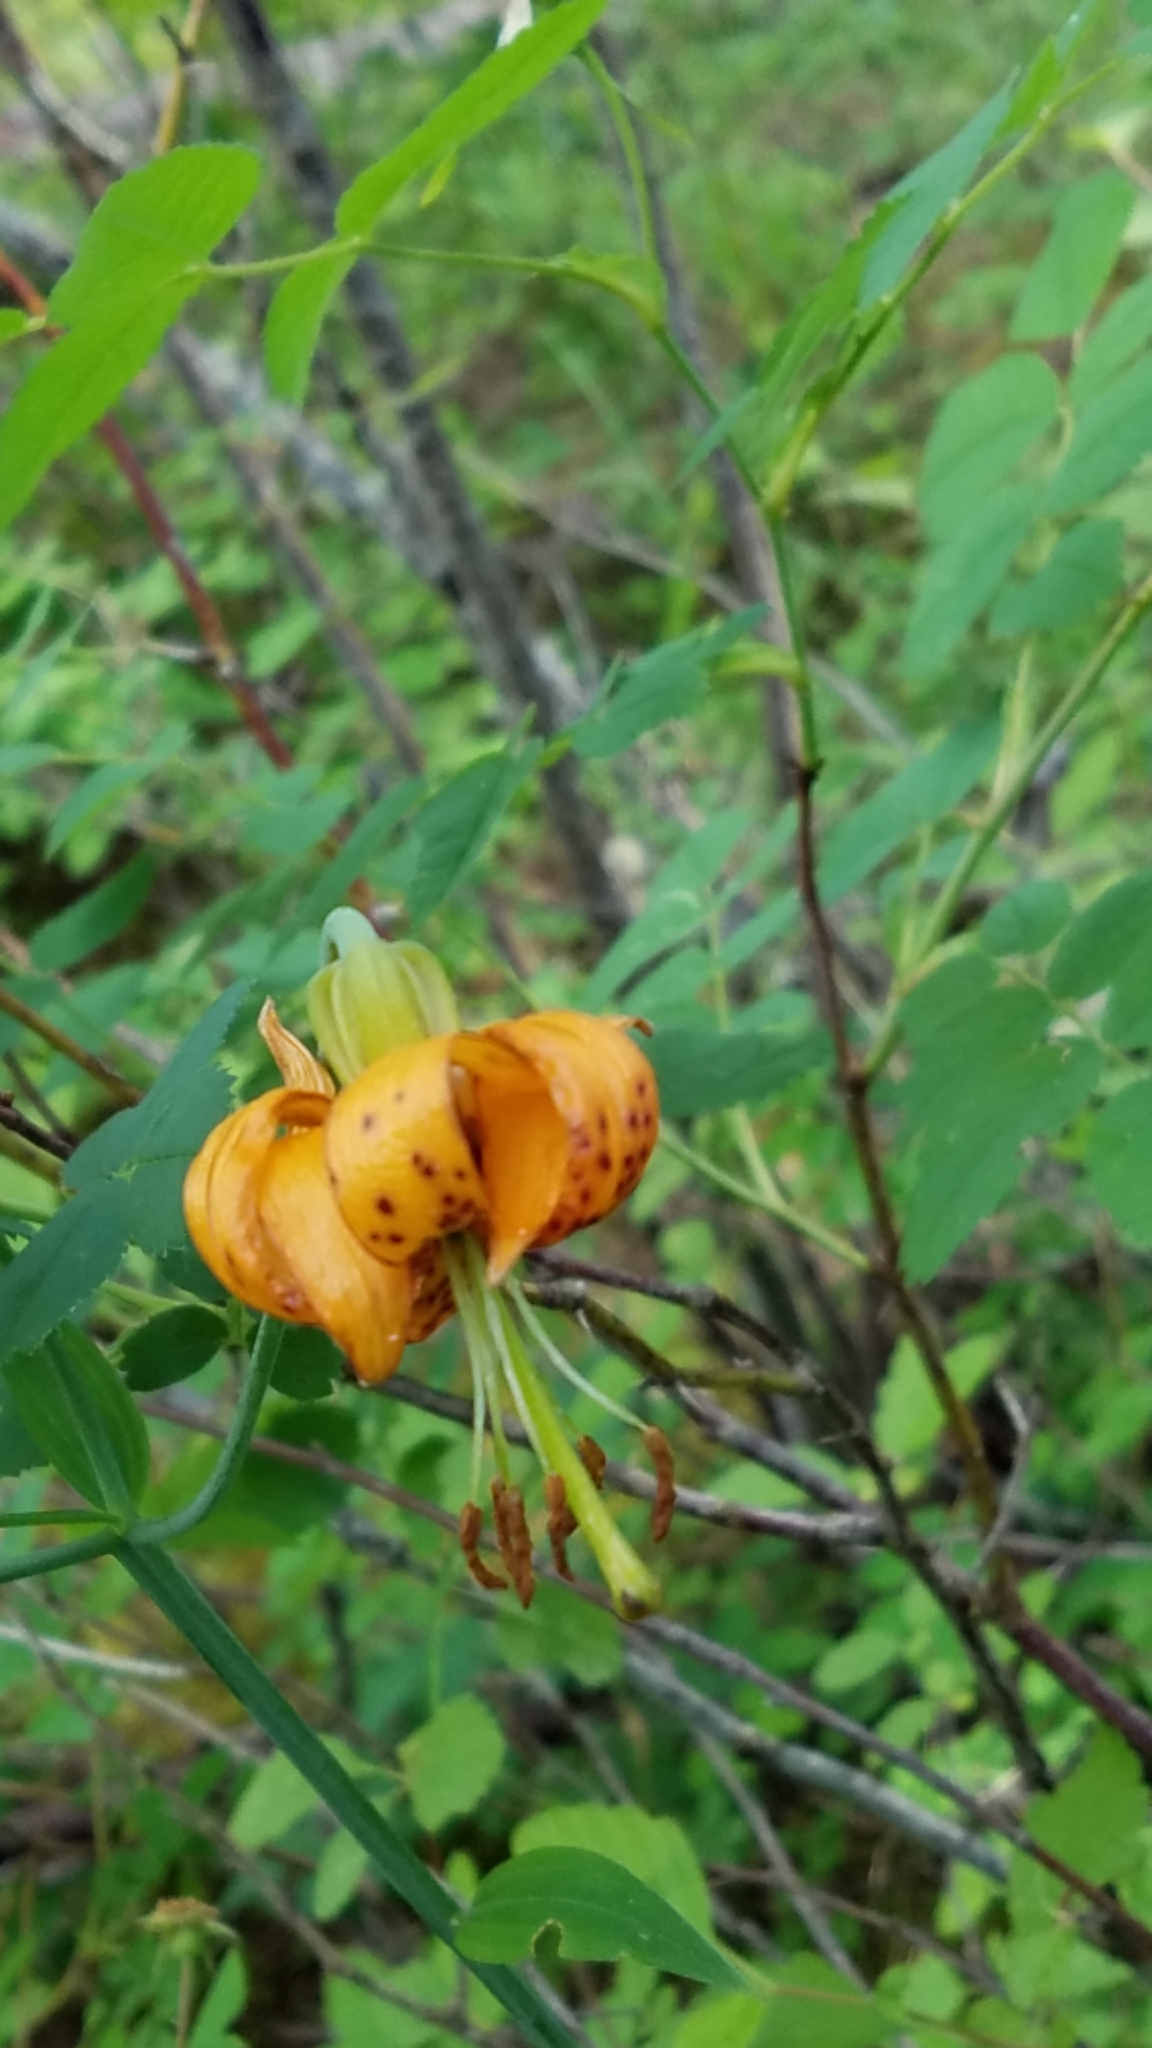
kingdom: Plantae
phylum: Tracheophyta
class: Liliopsida
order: Liliales
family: Liliaceae
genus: Lilium
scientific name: Lilium columbianum
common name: Columbia lily
